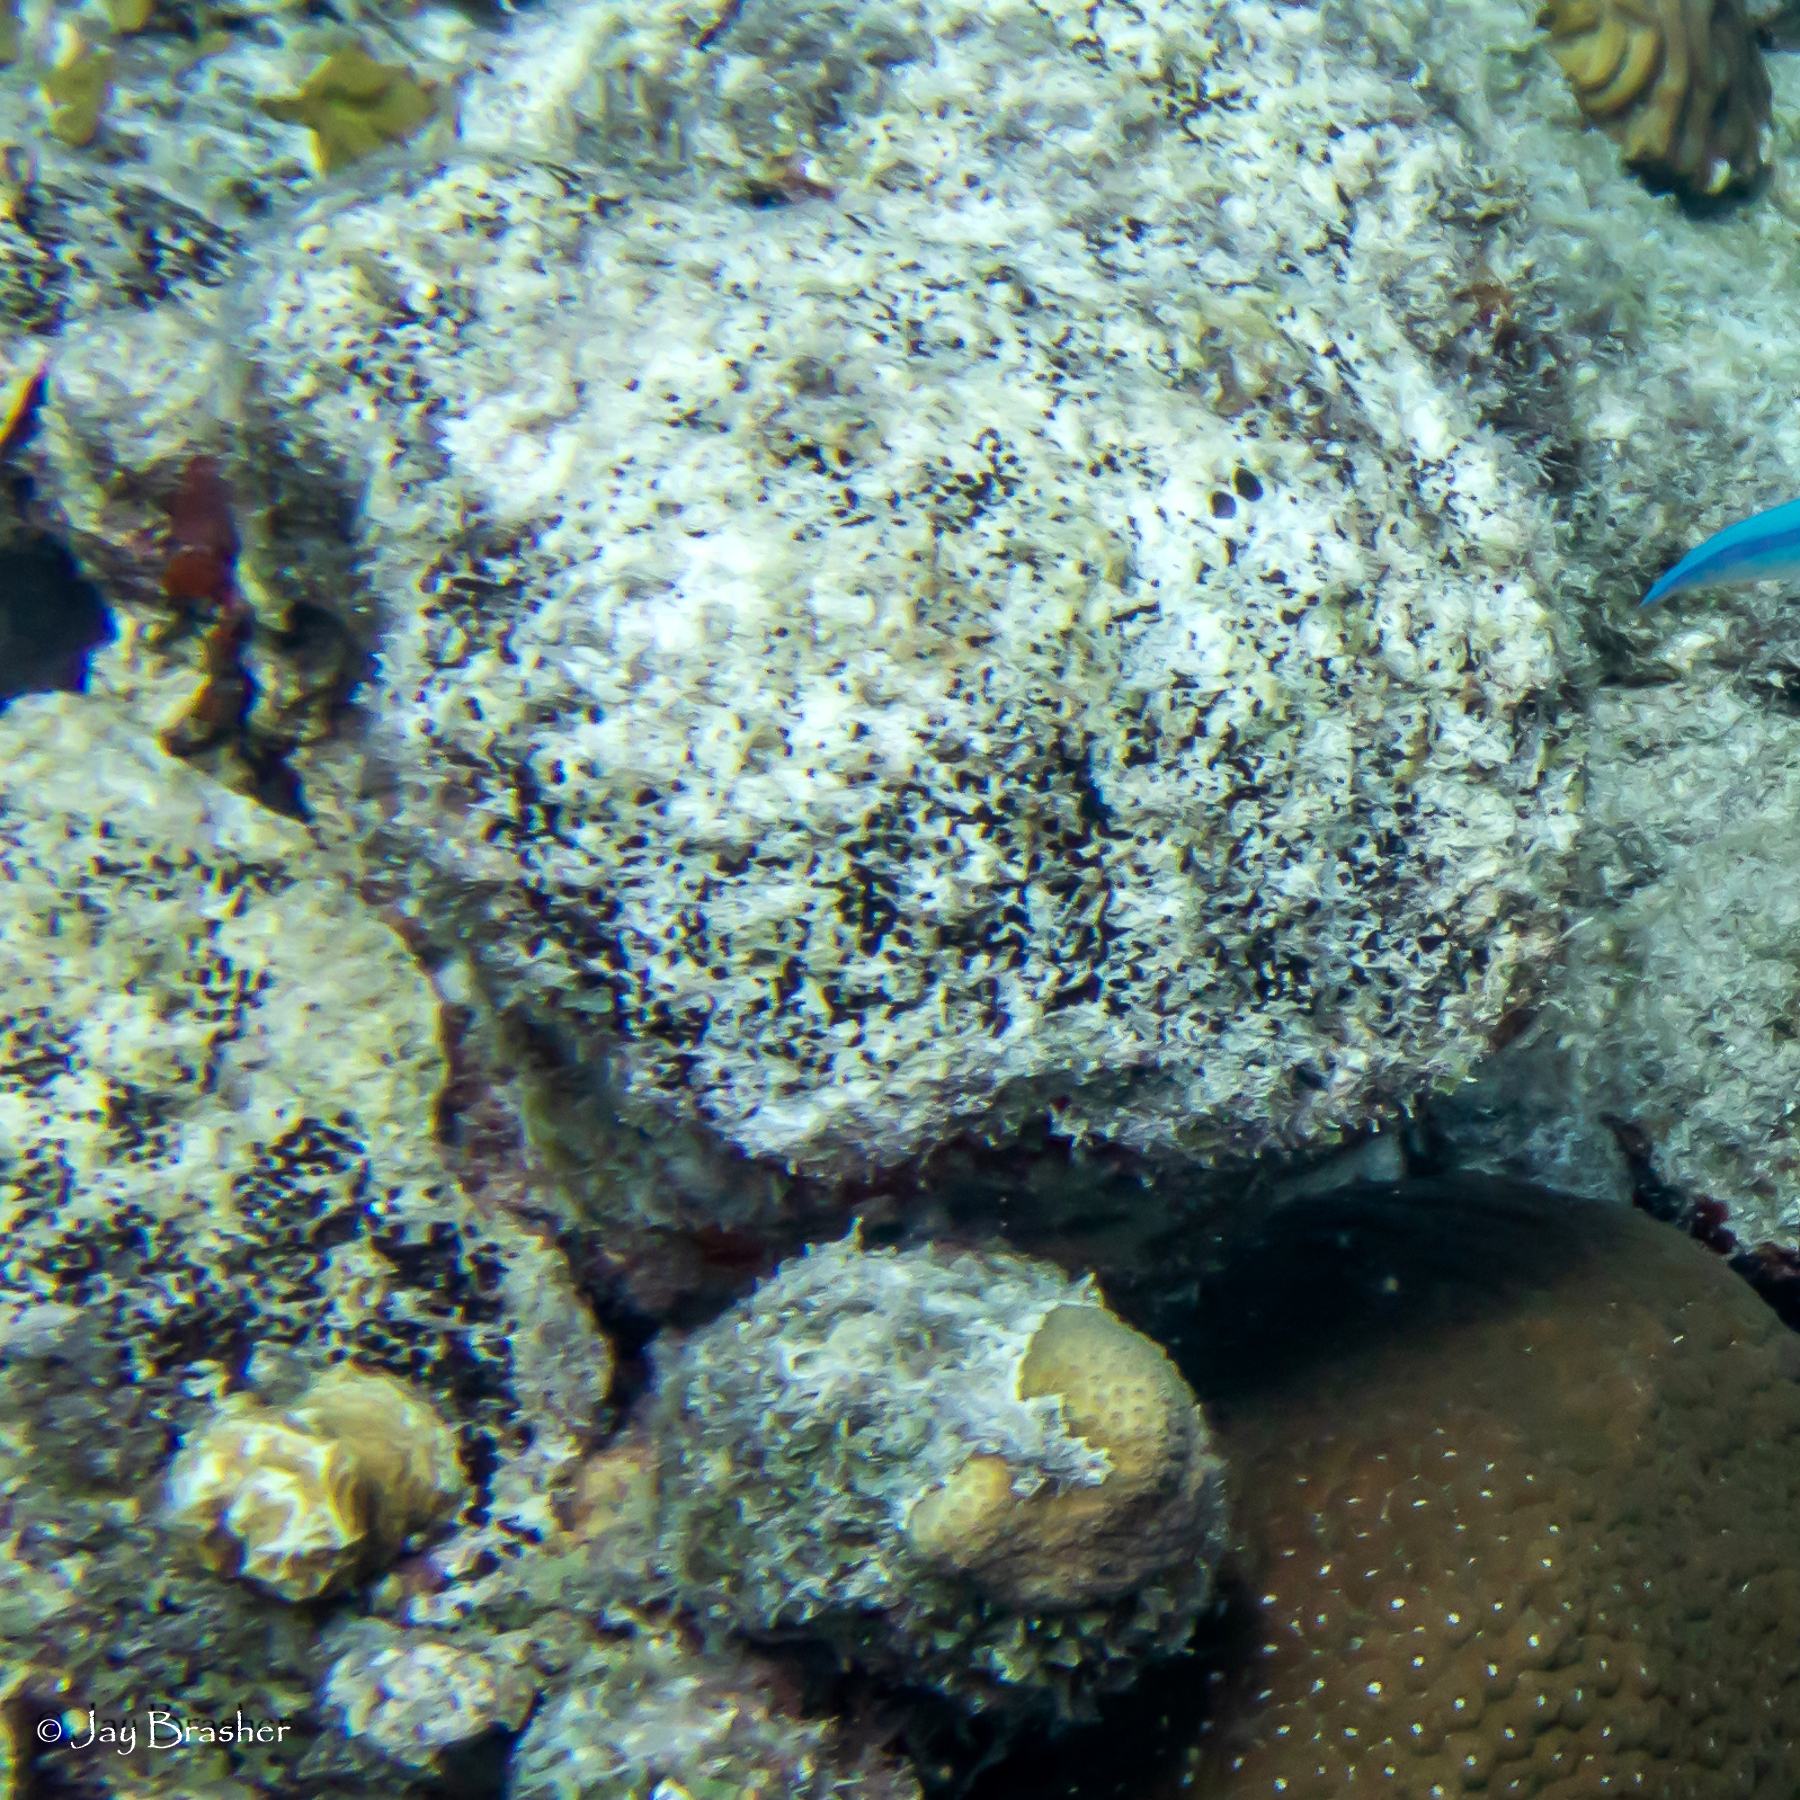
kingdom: Animalia
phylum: Porifera
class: Demospongiae
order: Clionaida
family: Clionaidae
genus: Cliona
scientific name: Cliona aprica
